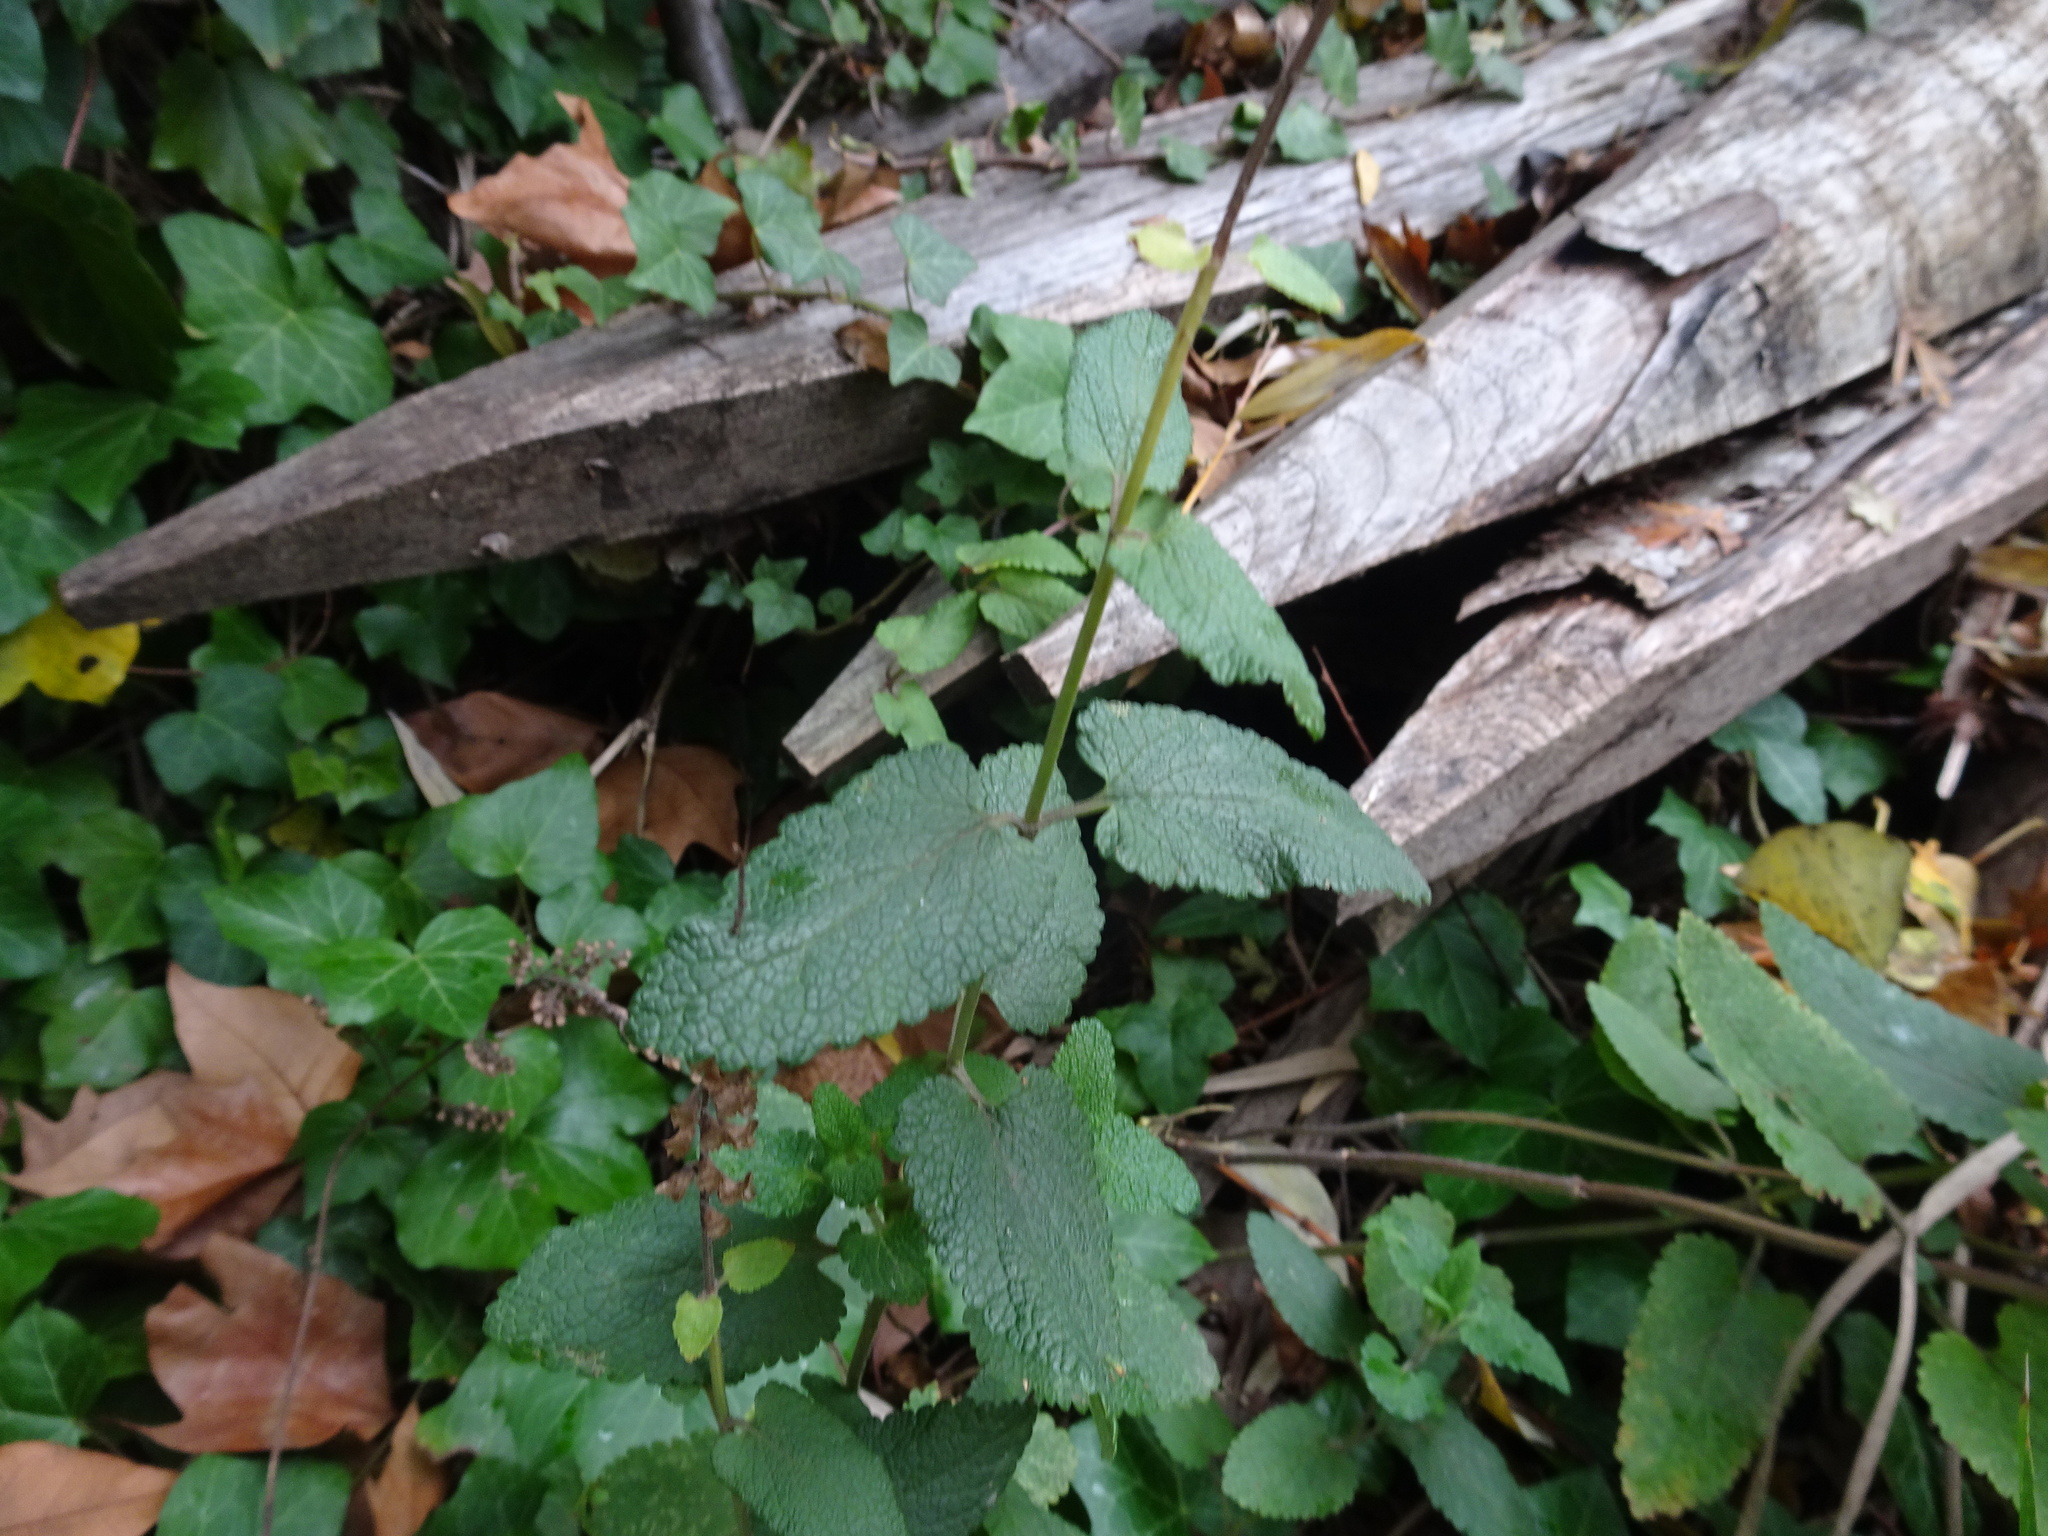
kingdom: Plantae
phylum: Tracheophyta
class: Magnoliopsida
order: Lamiales
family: Lamiaceae
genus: Teucrium
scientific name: Teucrium scorodonia
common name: Woodland germander
